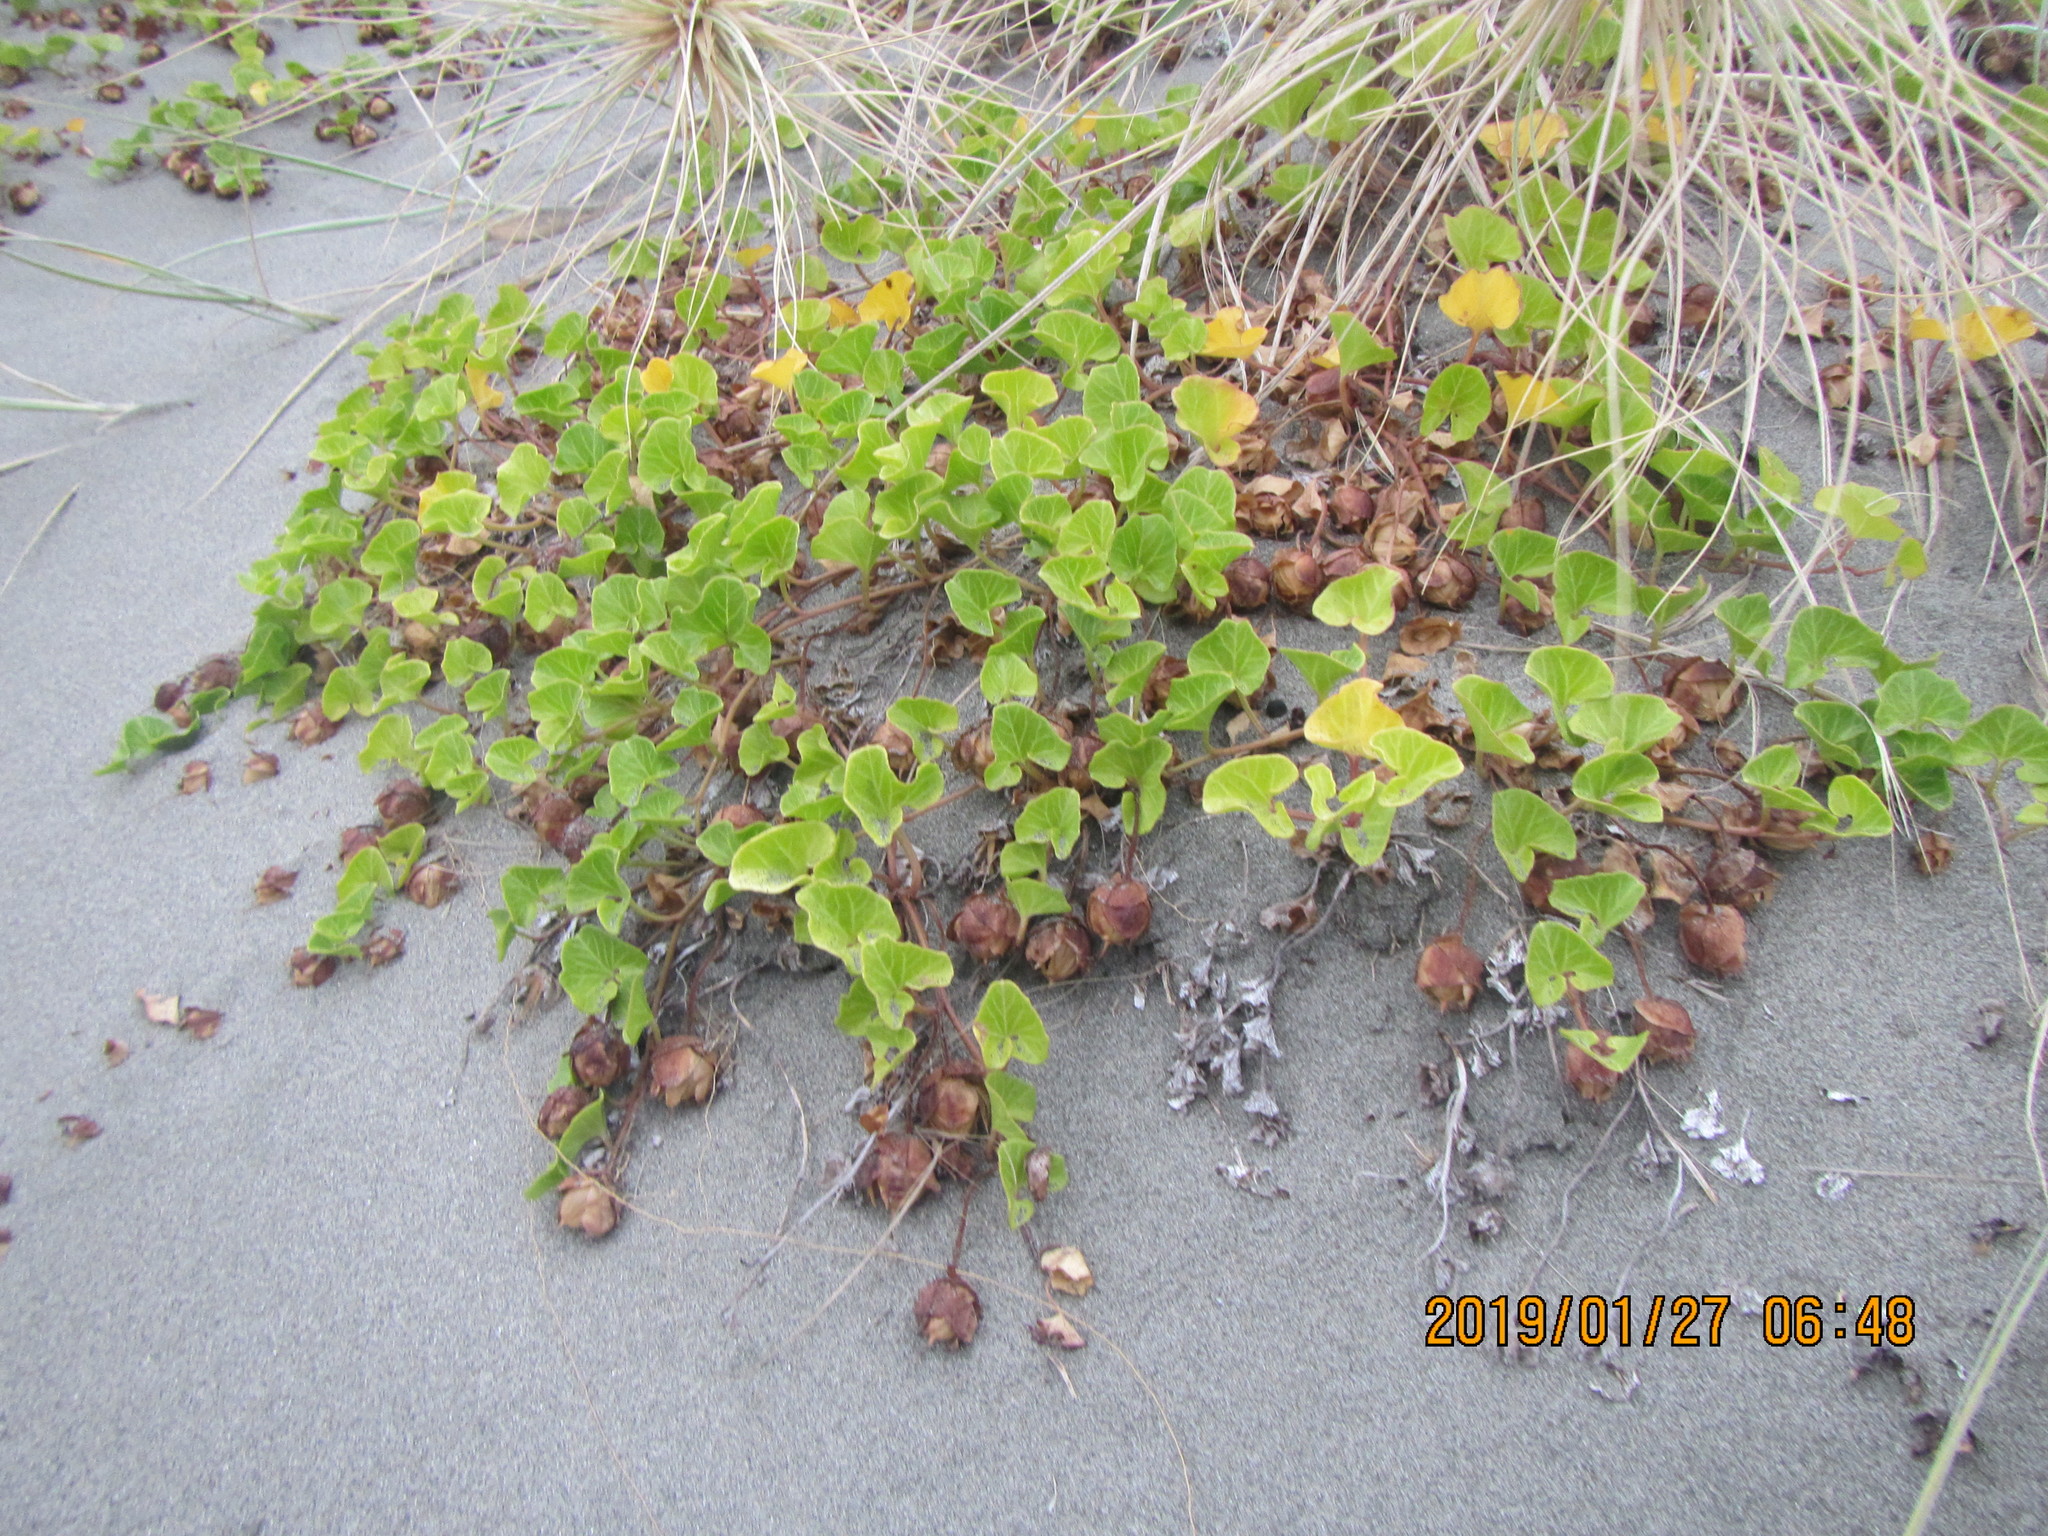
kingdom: Plantae
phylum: Tracheophyta
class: Magnoliopsida
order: Solanales
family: Convolvulaceae
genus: Calystegia
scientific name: Calystegia soldanella
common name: Sea bindweed
